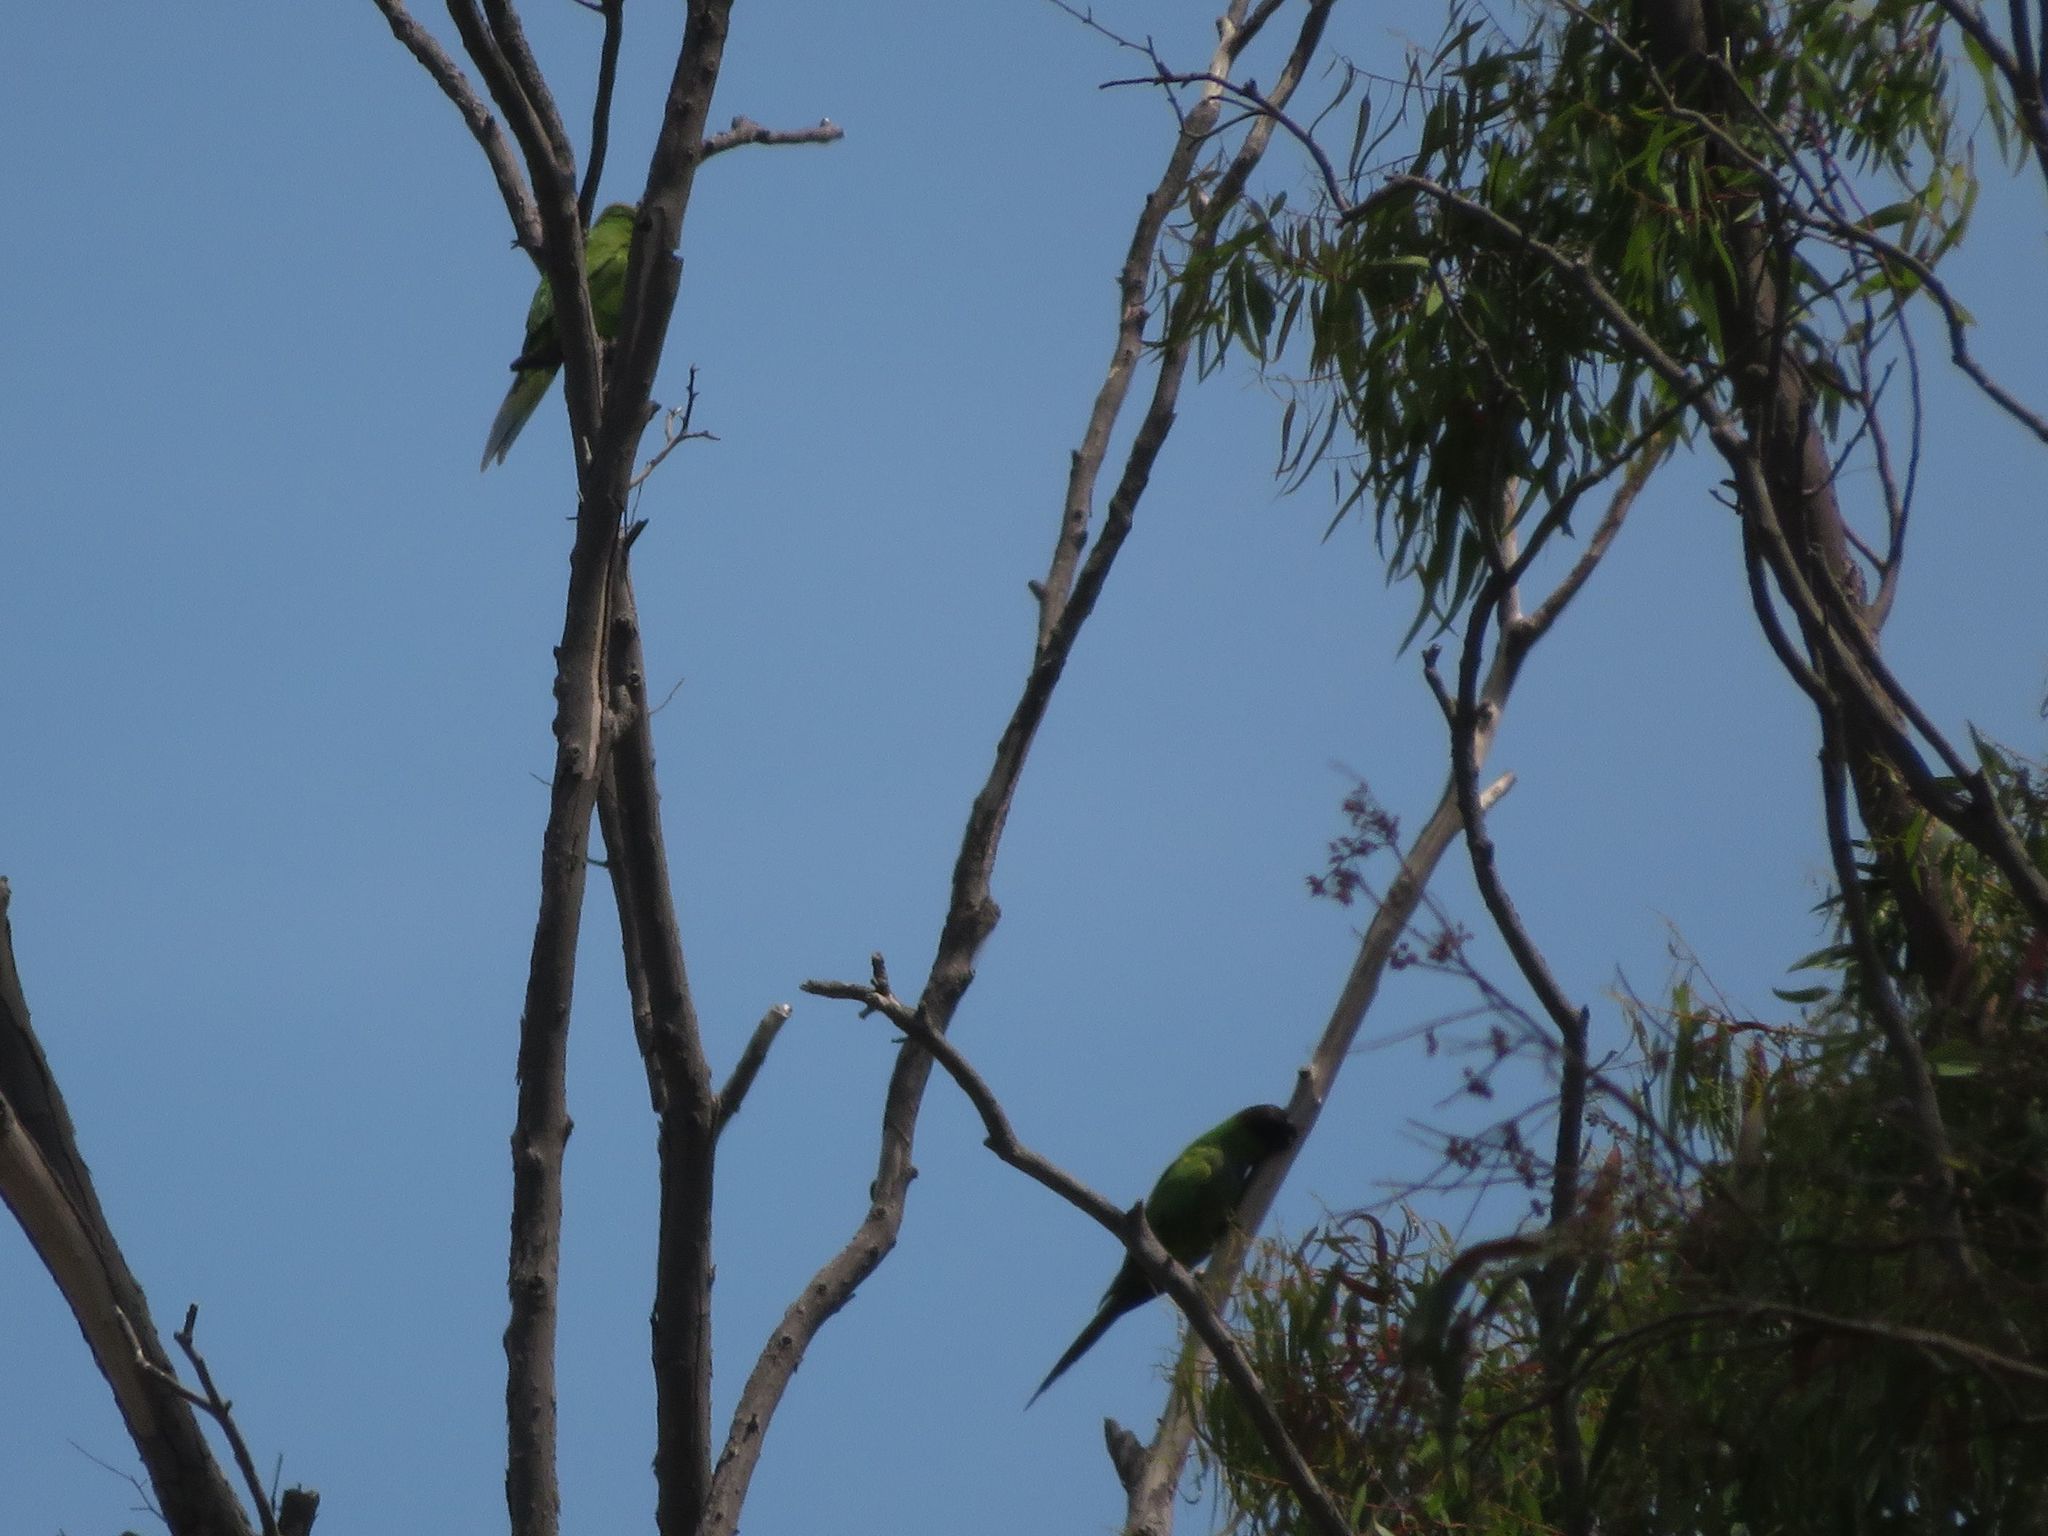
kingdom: Animalia
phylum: Chordata
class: Aves
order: Psittaciformes
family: Psittacidae
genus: Nandayus
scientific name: Nandayus nenday
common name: Nanday parakeet
